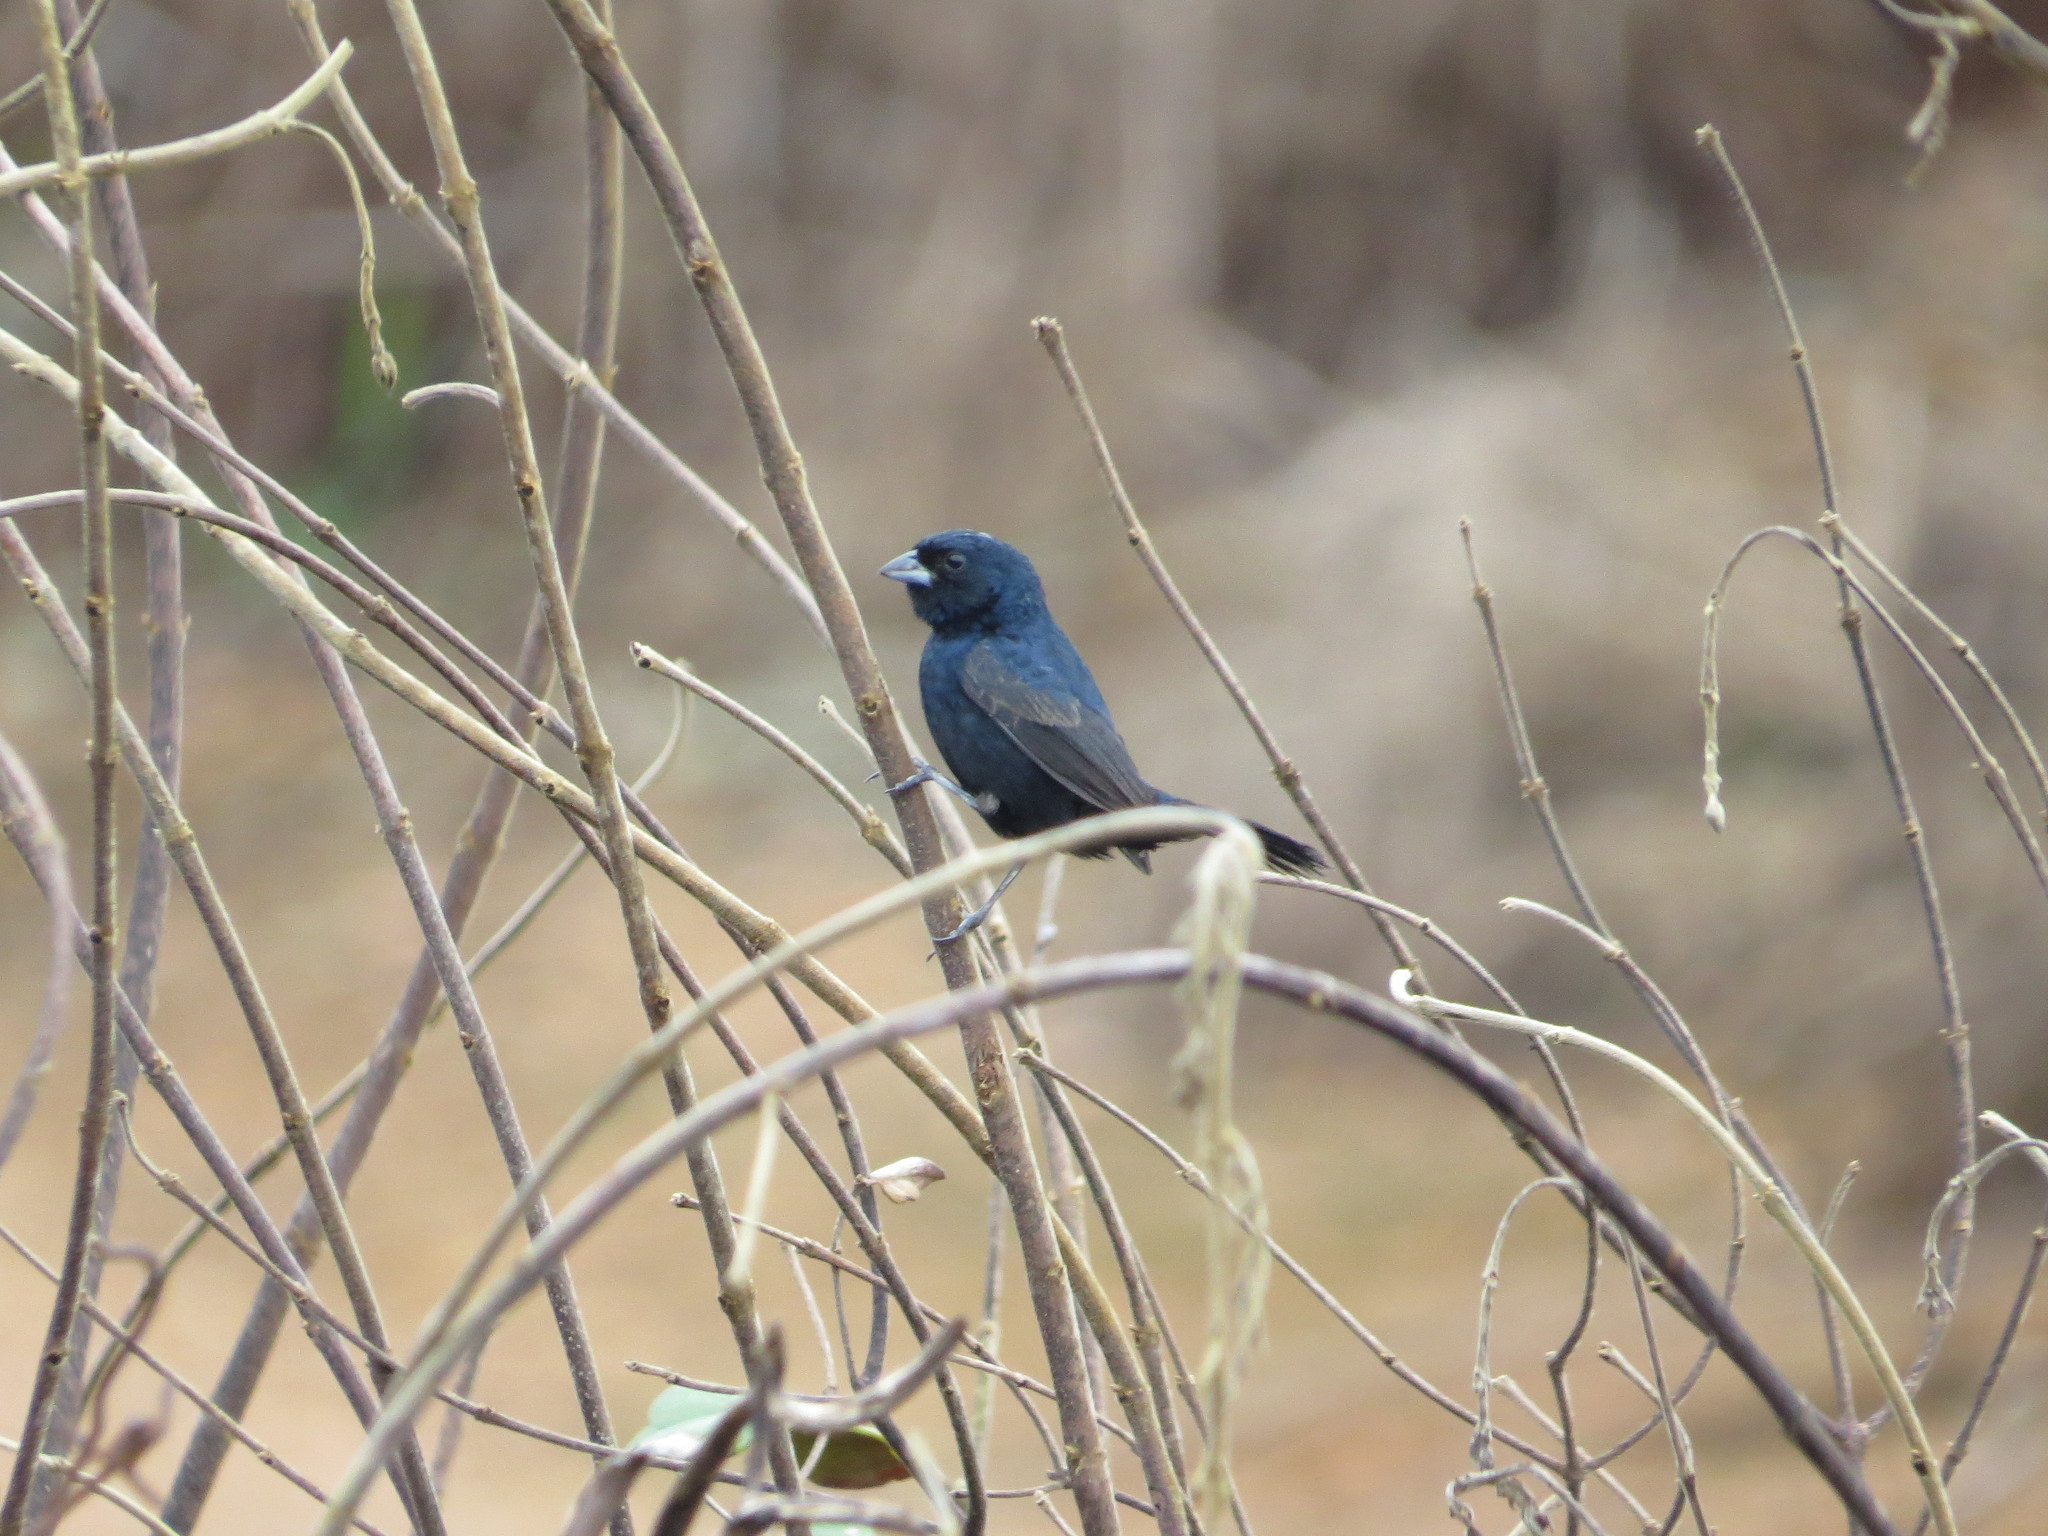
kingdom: Animalia
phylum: Chordata
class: Aves
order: Passeriformes
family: Thraupidae
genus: Volatinia
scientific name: Volatinia jacarina
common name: Blue-black grassquit
